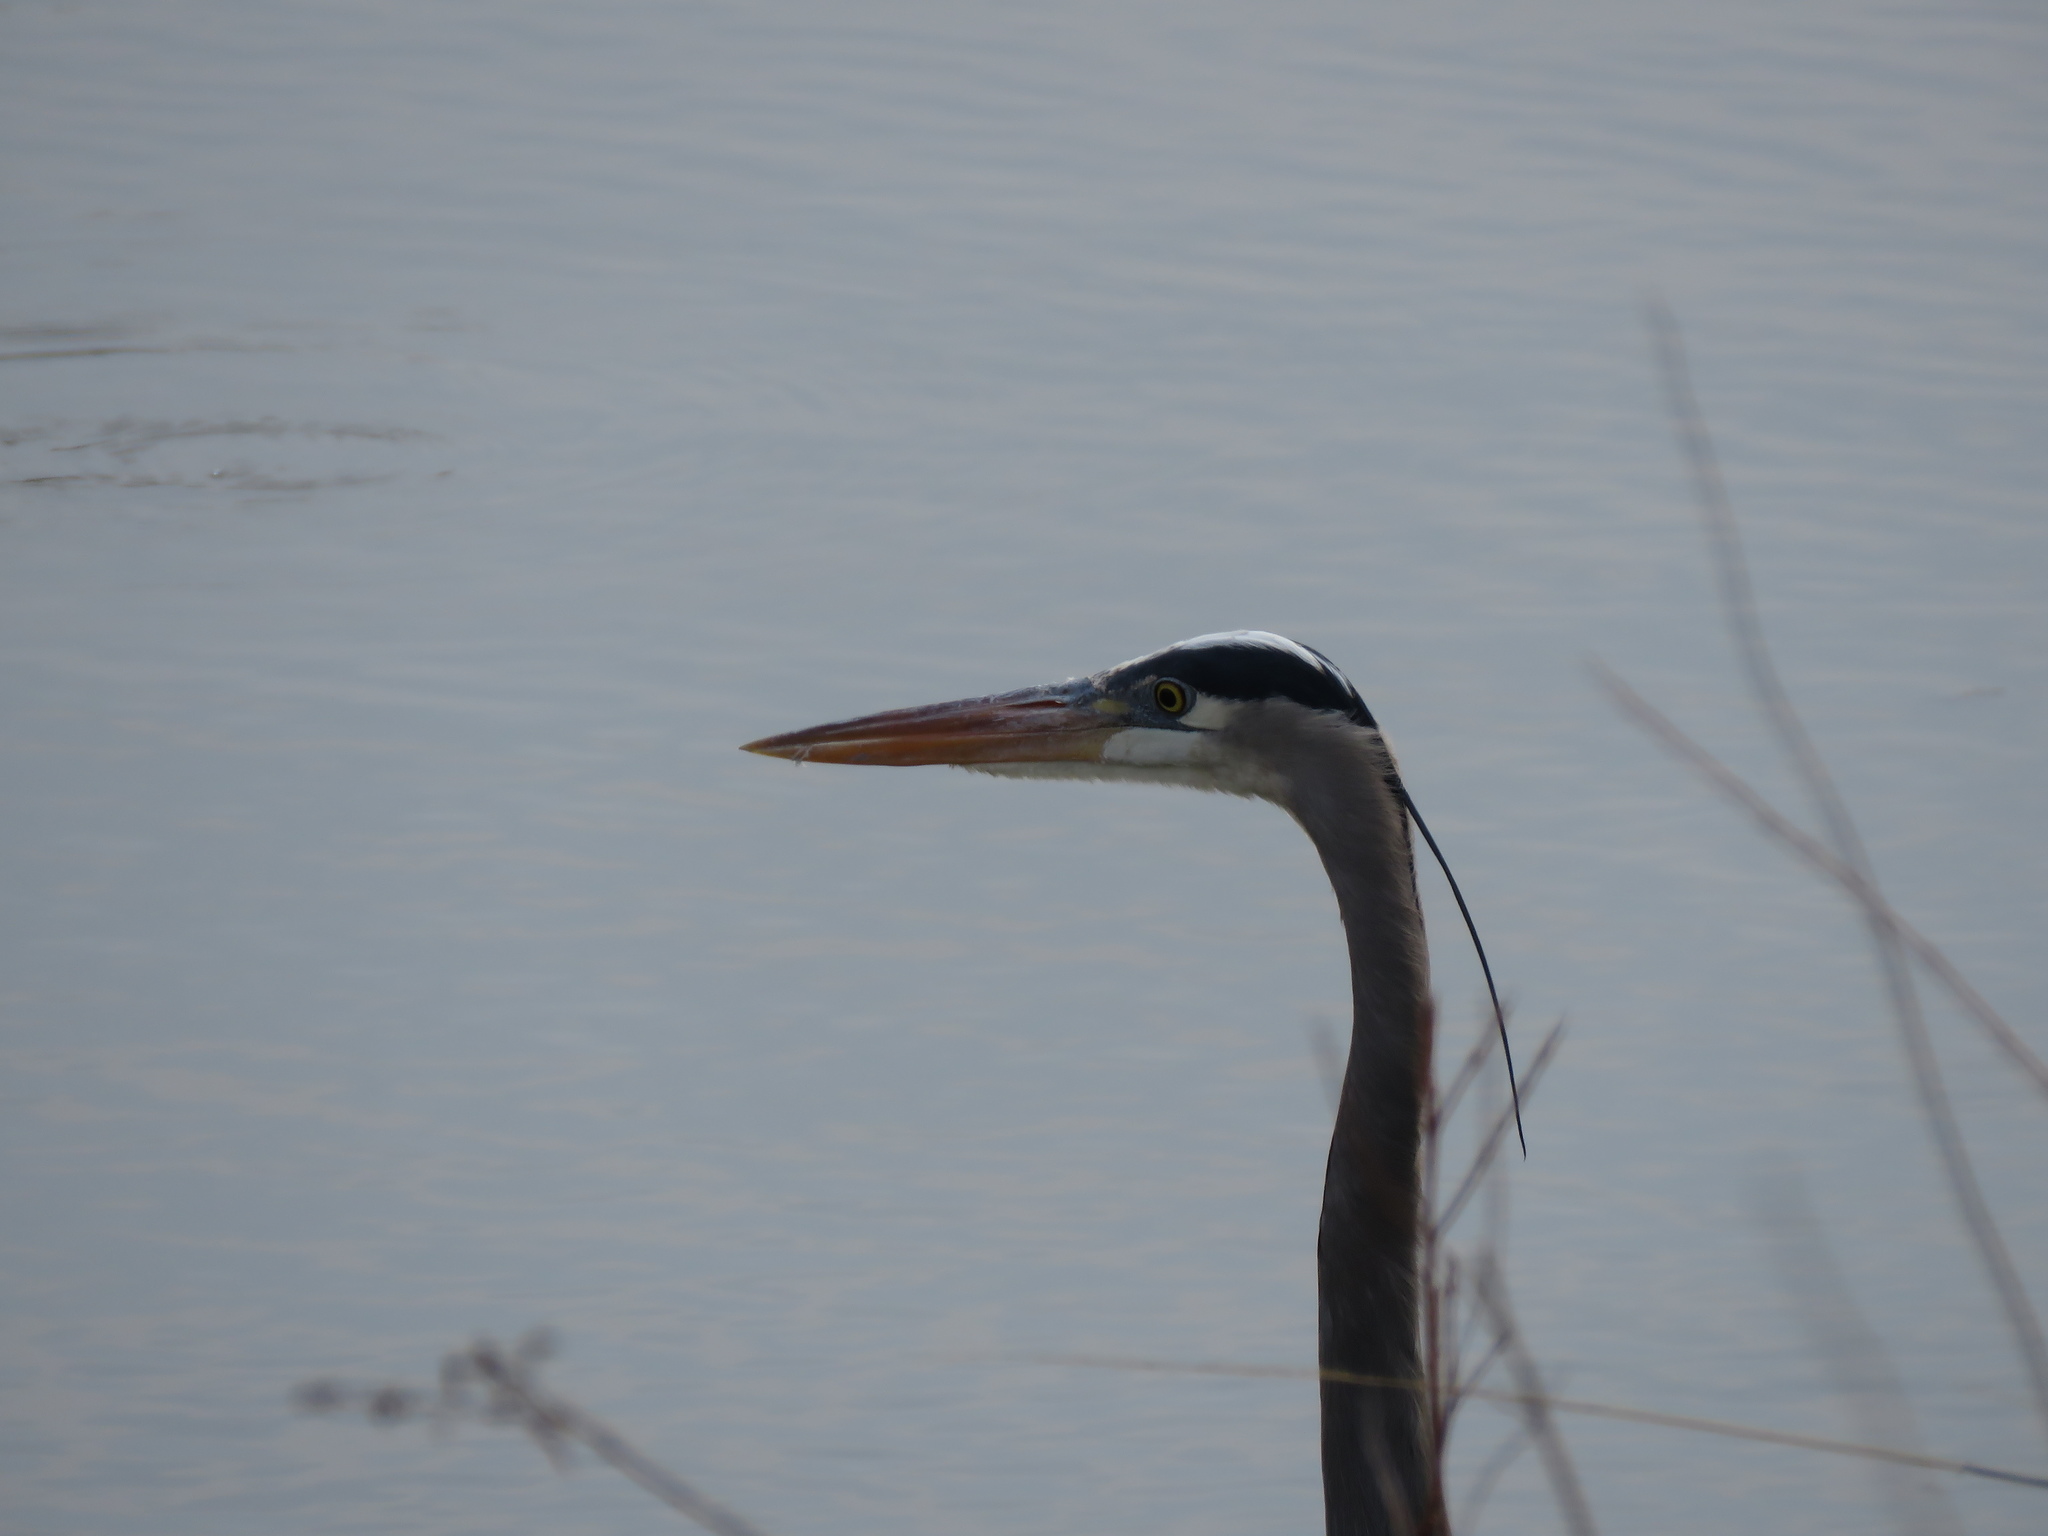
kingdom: Animalia
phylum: Chordata
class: Aves
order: Pelecaniformes
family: Ardeidae
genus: Ardea
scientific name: Ardea herodias
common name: Great blue heron
